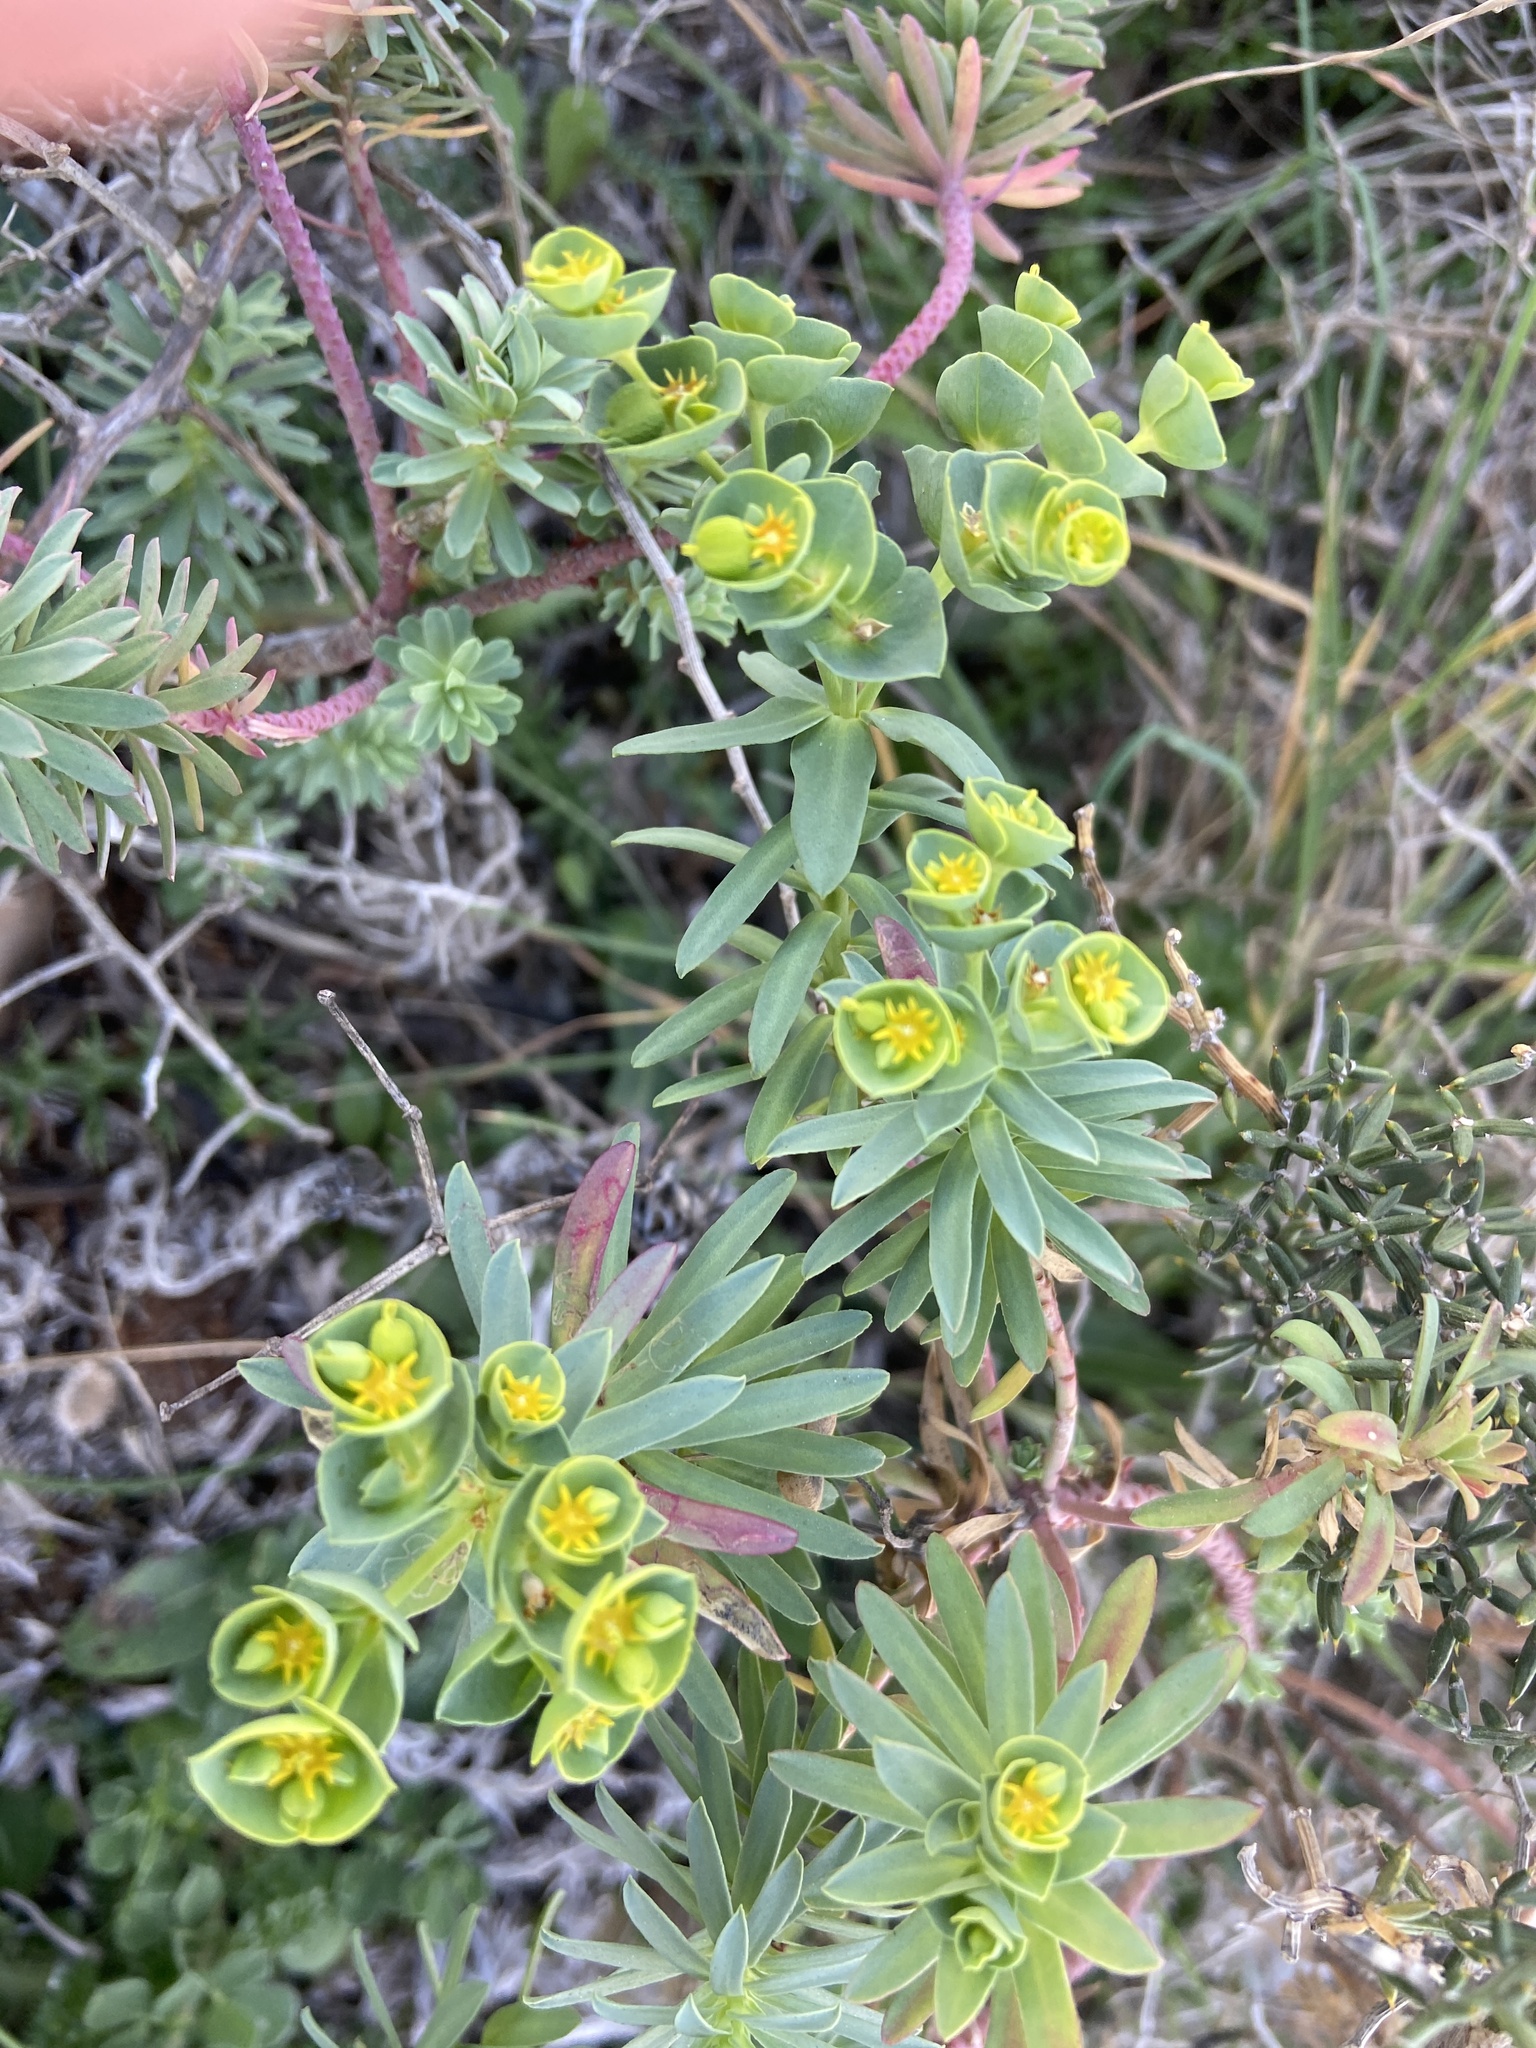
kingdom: Plantae
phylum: Tracheophyta
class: Magnoliopsida
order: Malpighiales
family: Euphorbiaceae
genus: Euphorbia
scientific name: Euphorbia segetalis
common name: Corn spurge
